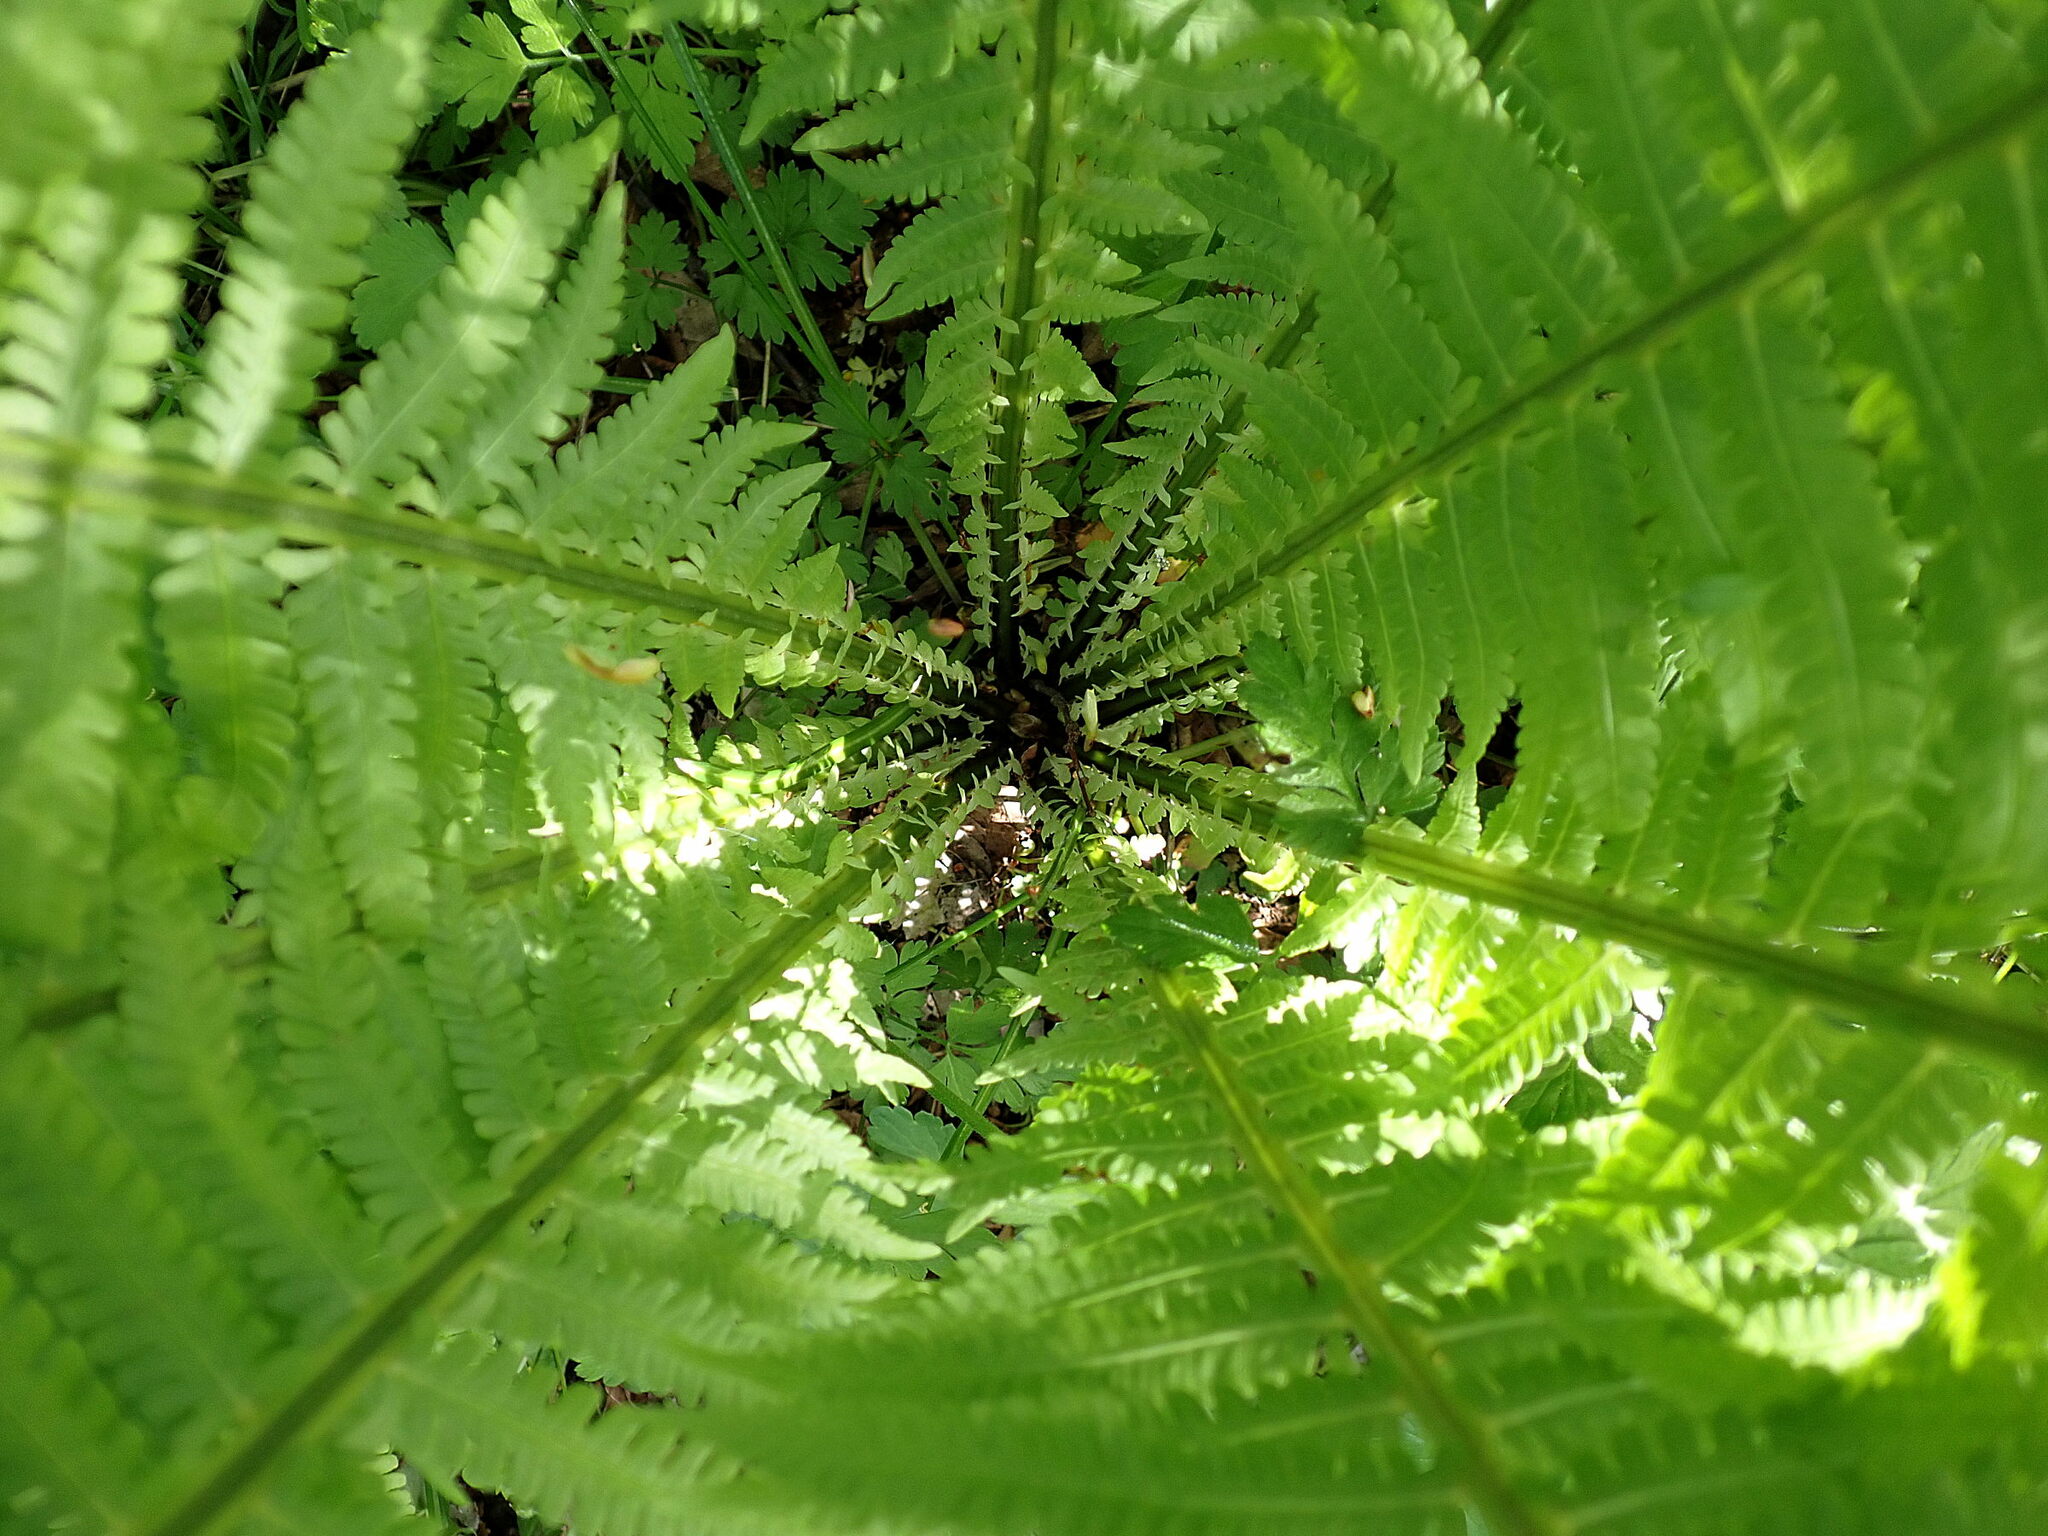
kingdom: Plantae
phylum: Tracheophyta
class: Polypodiopsida
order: Polypodiales
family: Onocleaceae
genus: Matteuccia
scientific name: Matteuccia struthiopteris
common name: Ostrich fern
